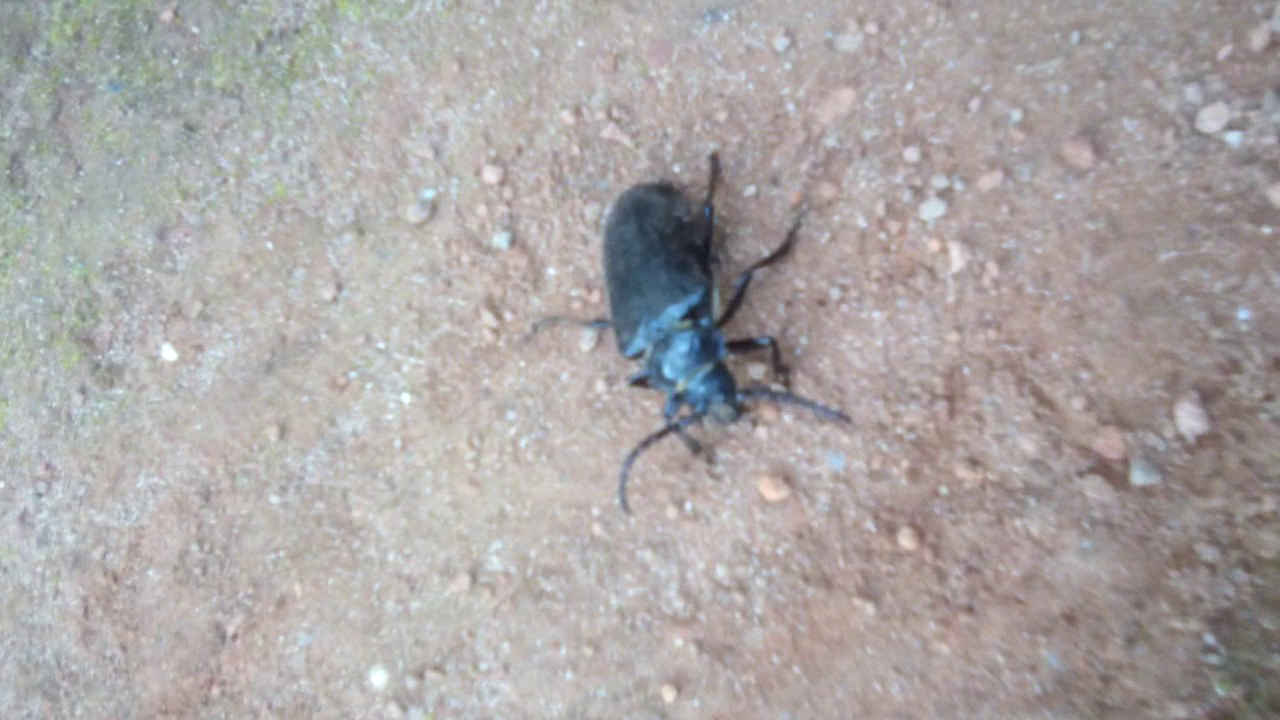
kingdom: Animalia
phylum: Arthropoda
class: Insecta
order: Coleoptera
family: Cerambycidae
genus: Prionus
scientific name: Prionus coriarius
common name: Tanner beetle
